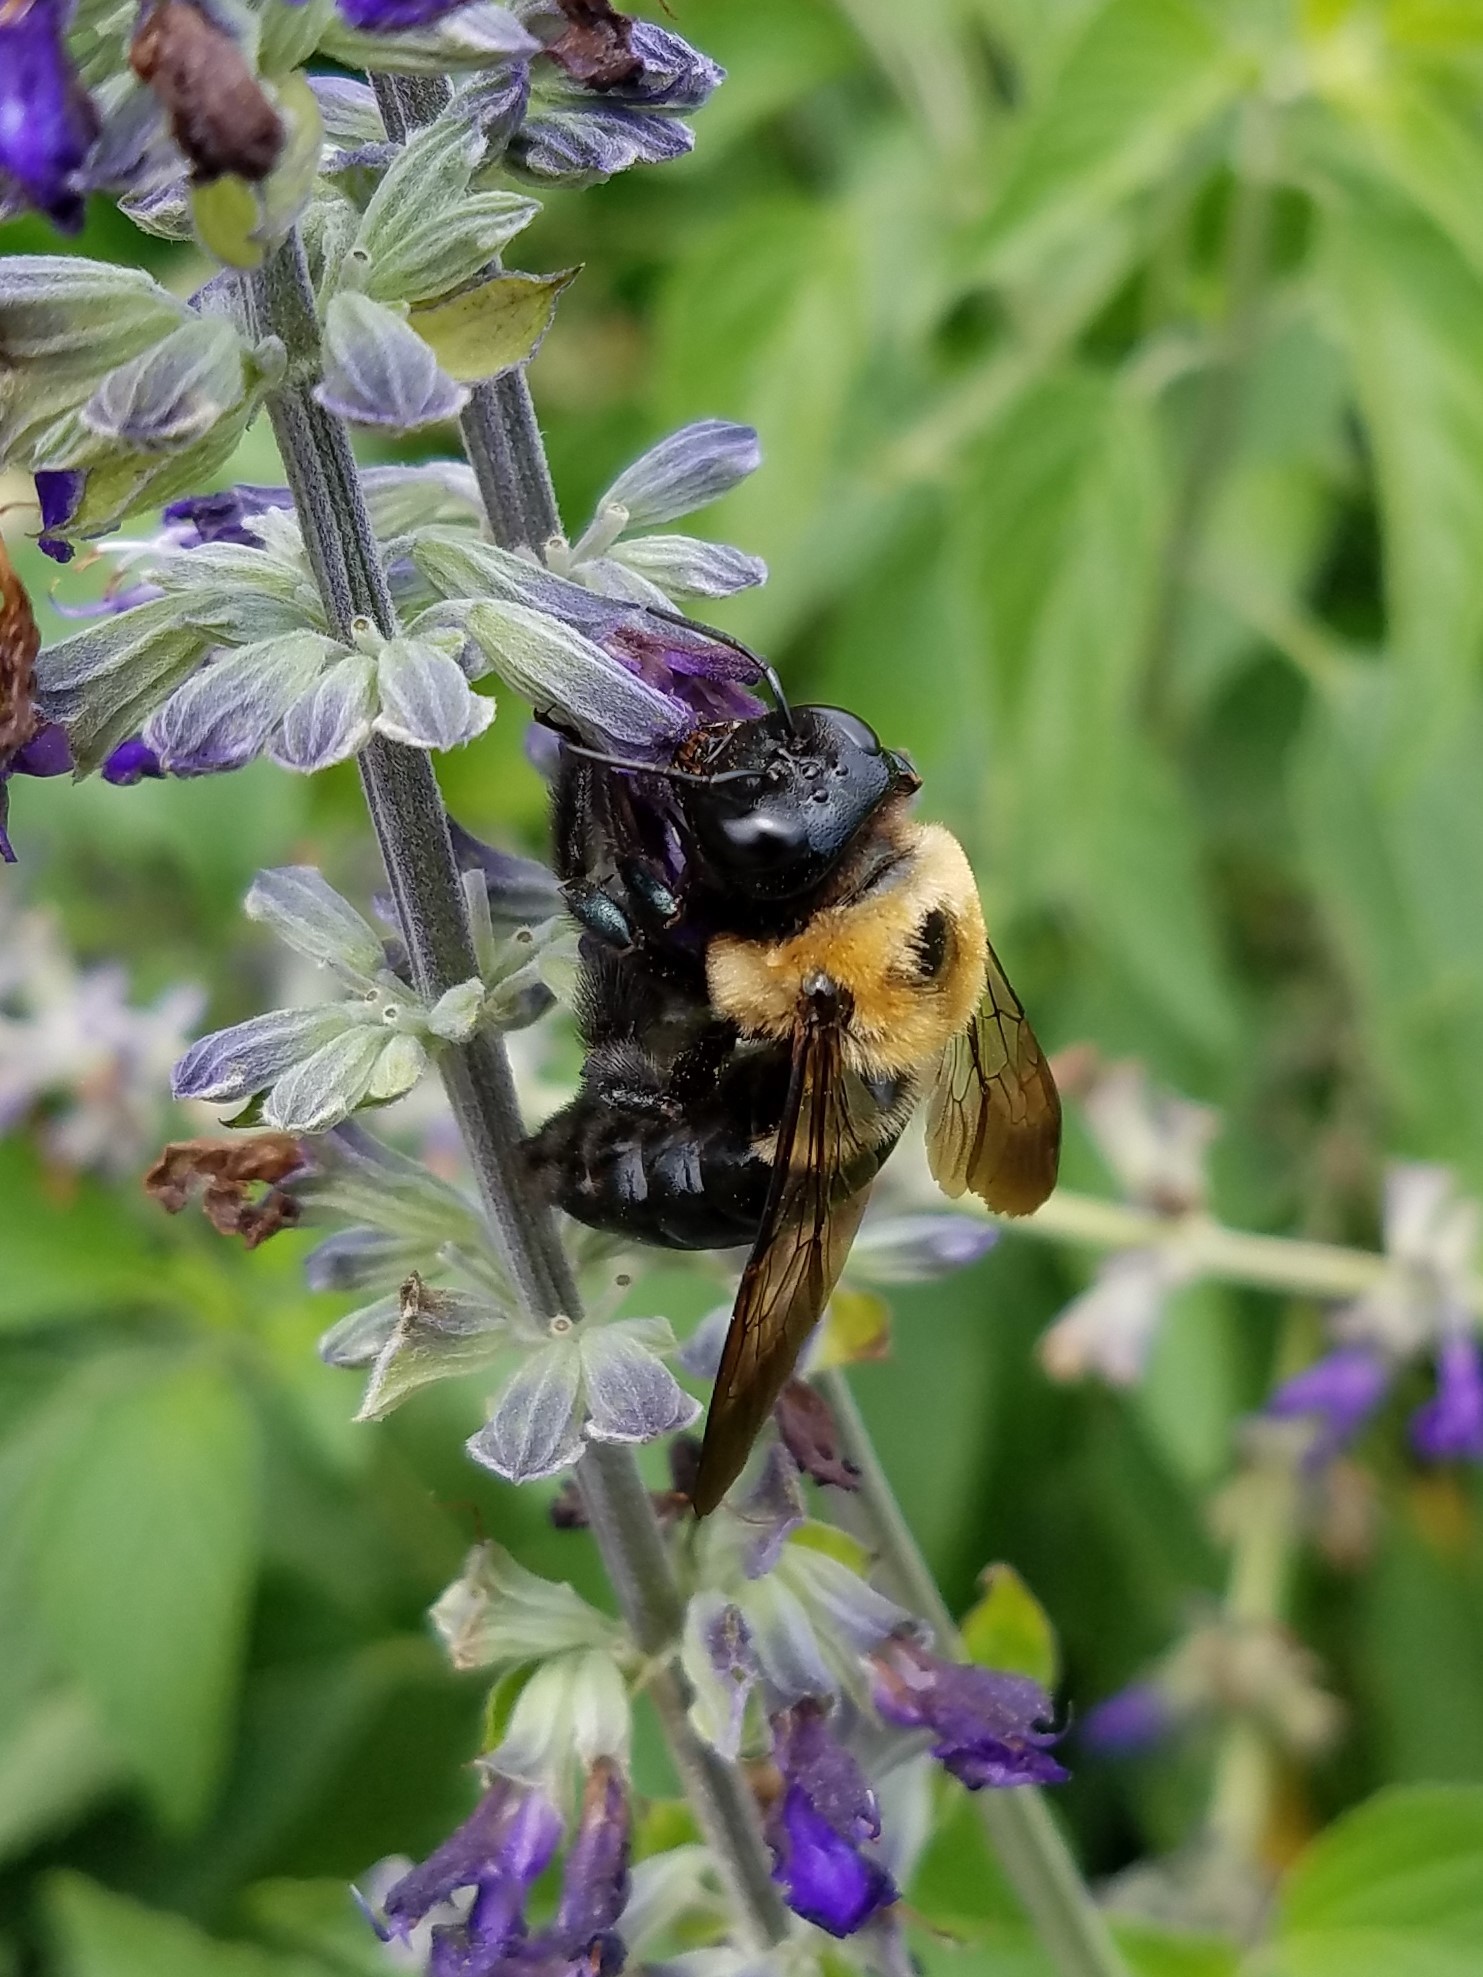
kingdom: Animalia
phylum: Arthropoda
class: Insecta
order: Hymenoptera
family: Apidae
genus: Xylocopa
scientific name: Xylocopa virginica
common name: Carpenter bee
